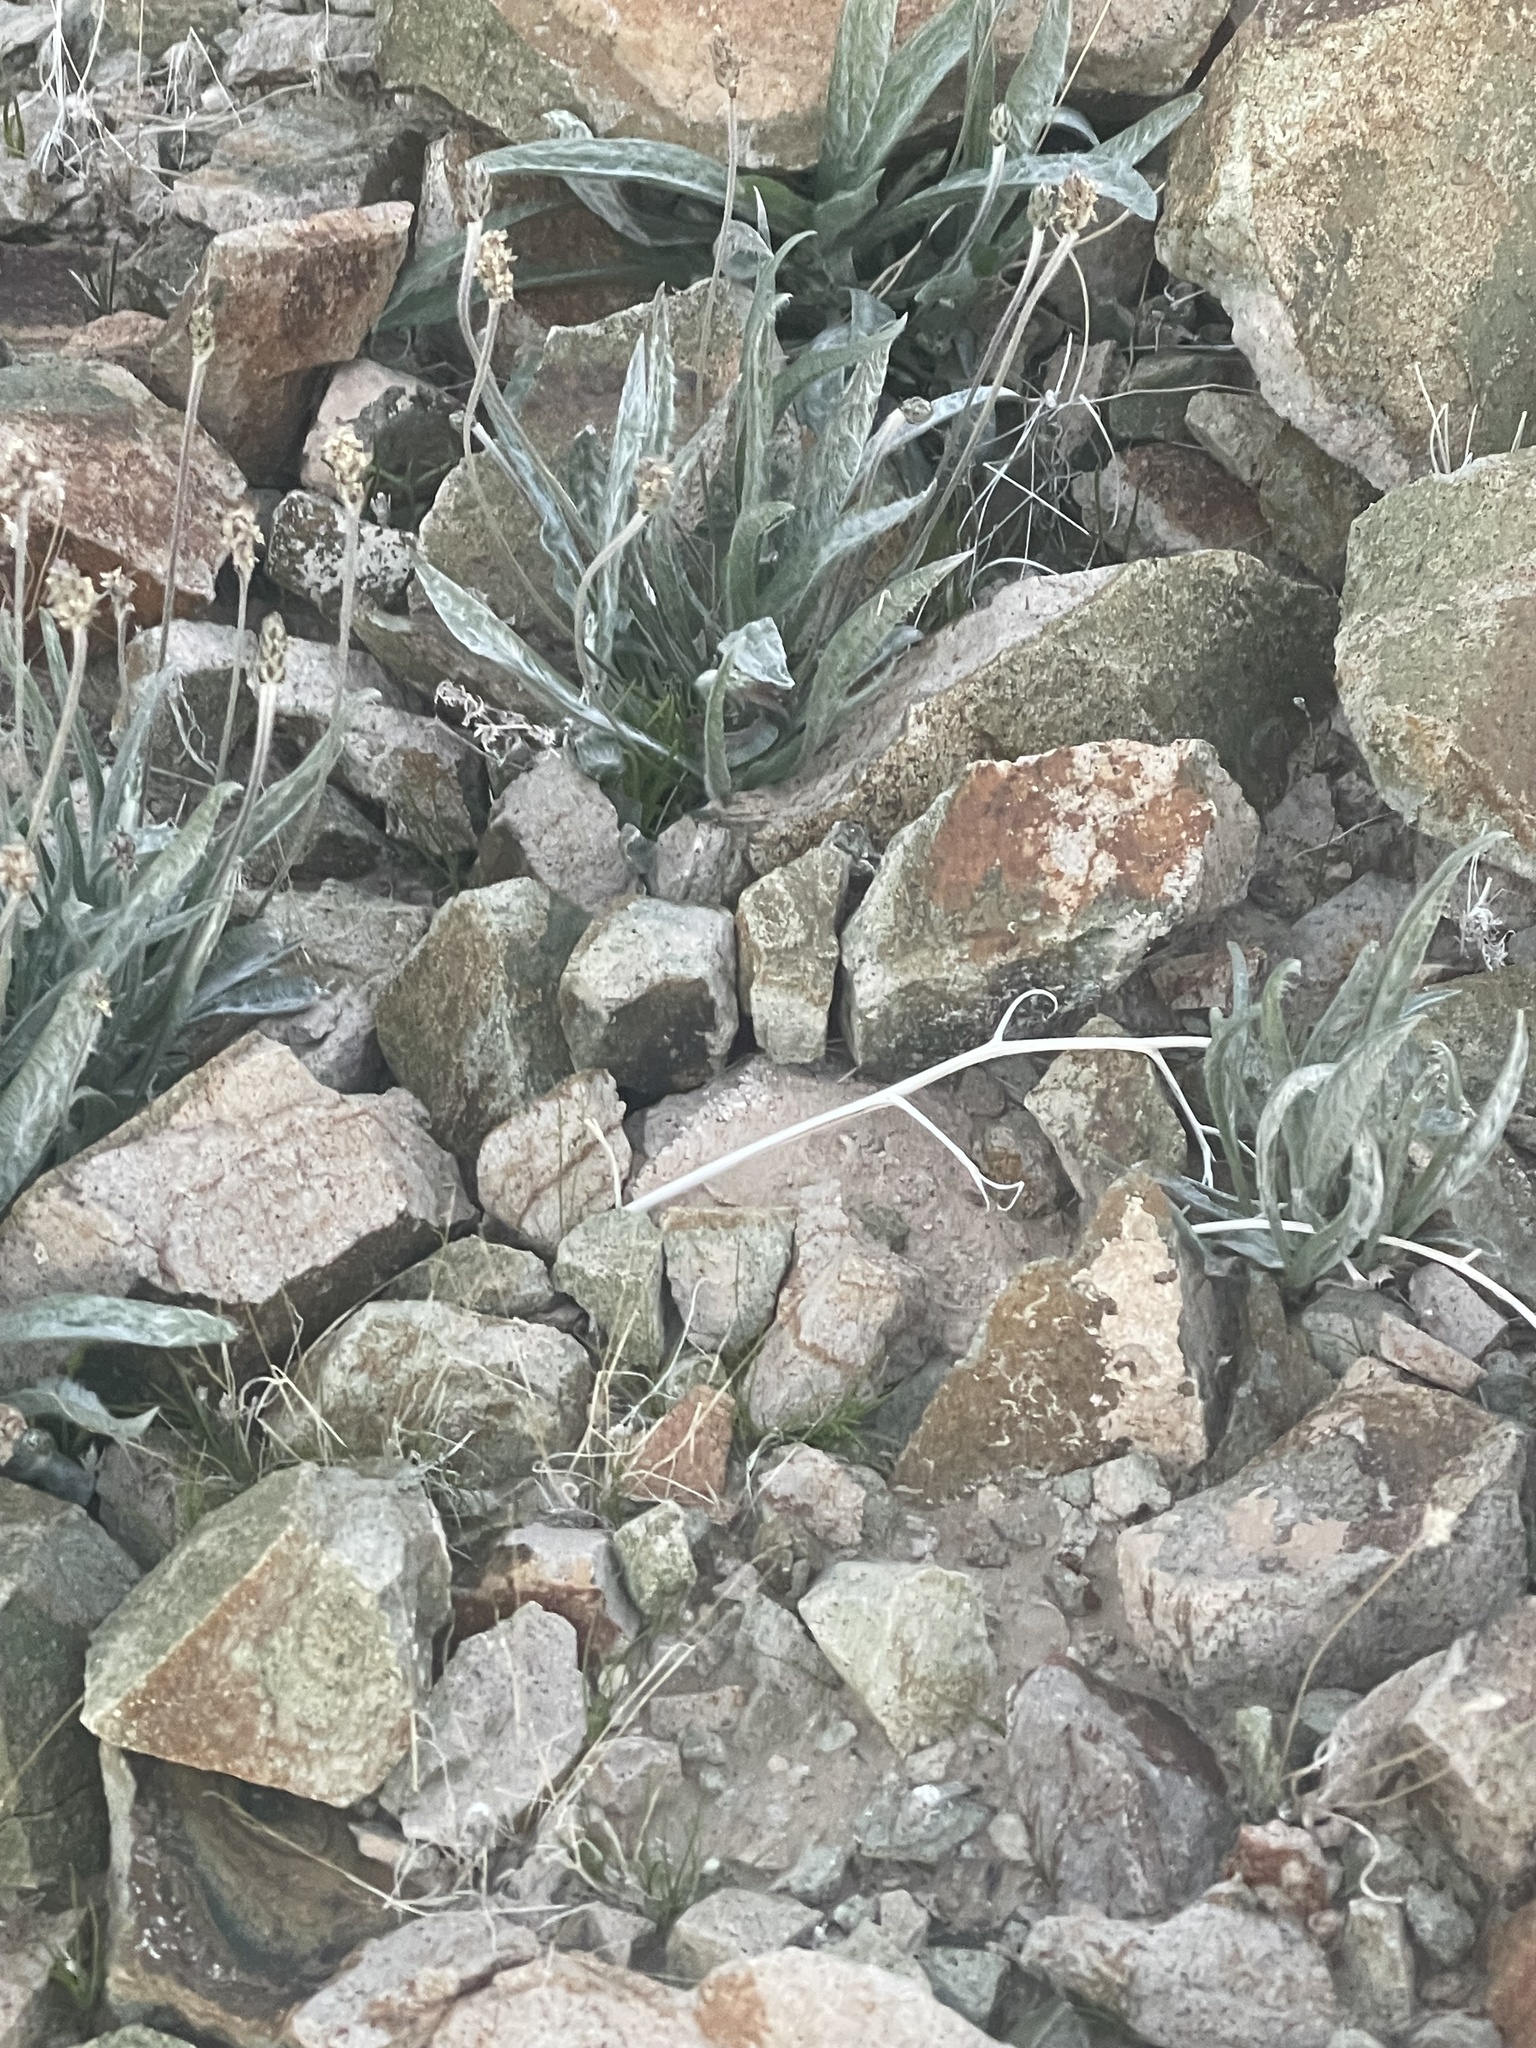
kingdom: Plantae
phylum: Tracheophyta
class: Magnoliopsida
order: Lamiales
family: Plantaginaceae
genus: Plantago
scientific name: Plantago ovata
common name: Blond plantain
